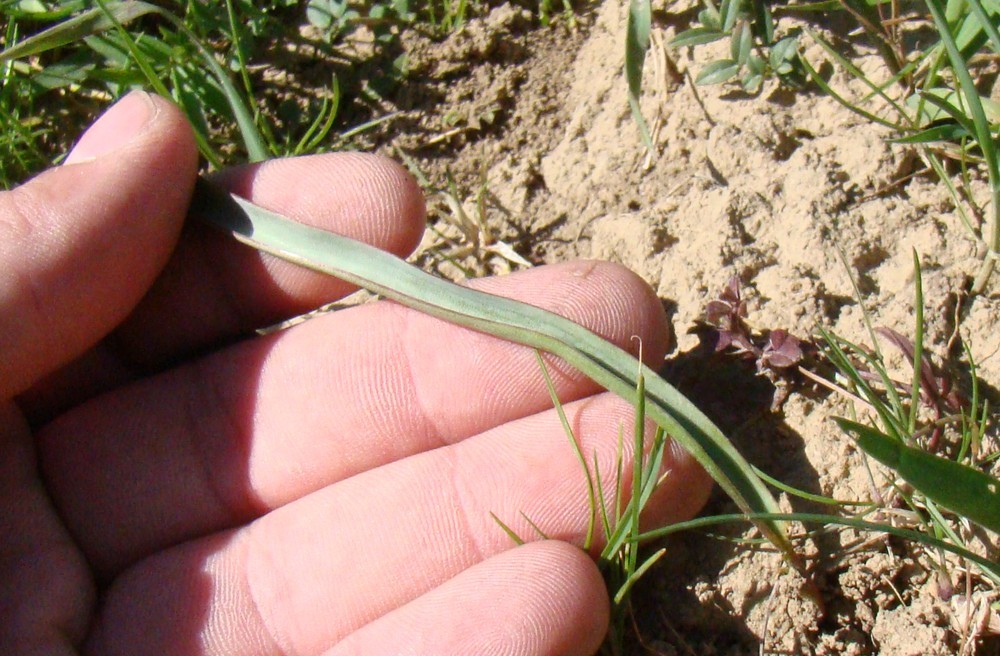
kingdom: Plantae
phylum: Tracheophyta
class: Liliopsida
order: Liliales
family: Liliaceae
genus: Tulipa
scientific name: Tulipa sylvestris
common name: Wild tulip
